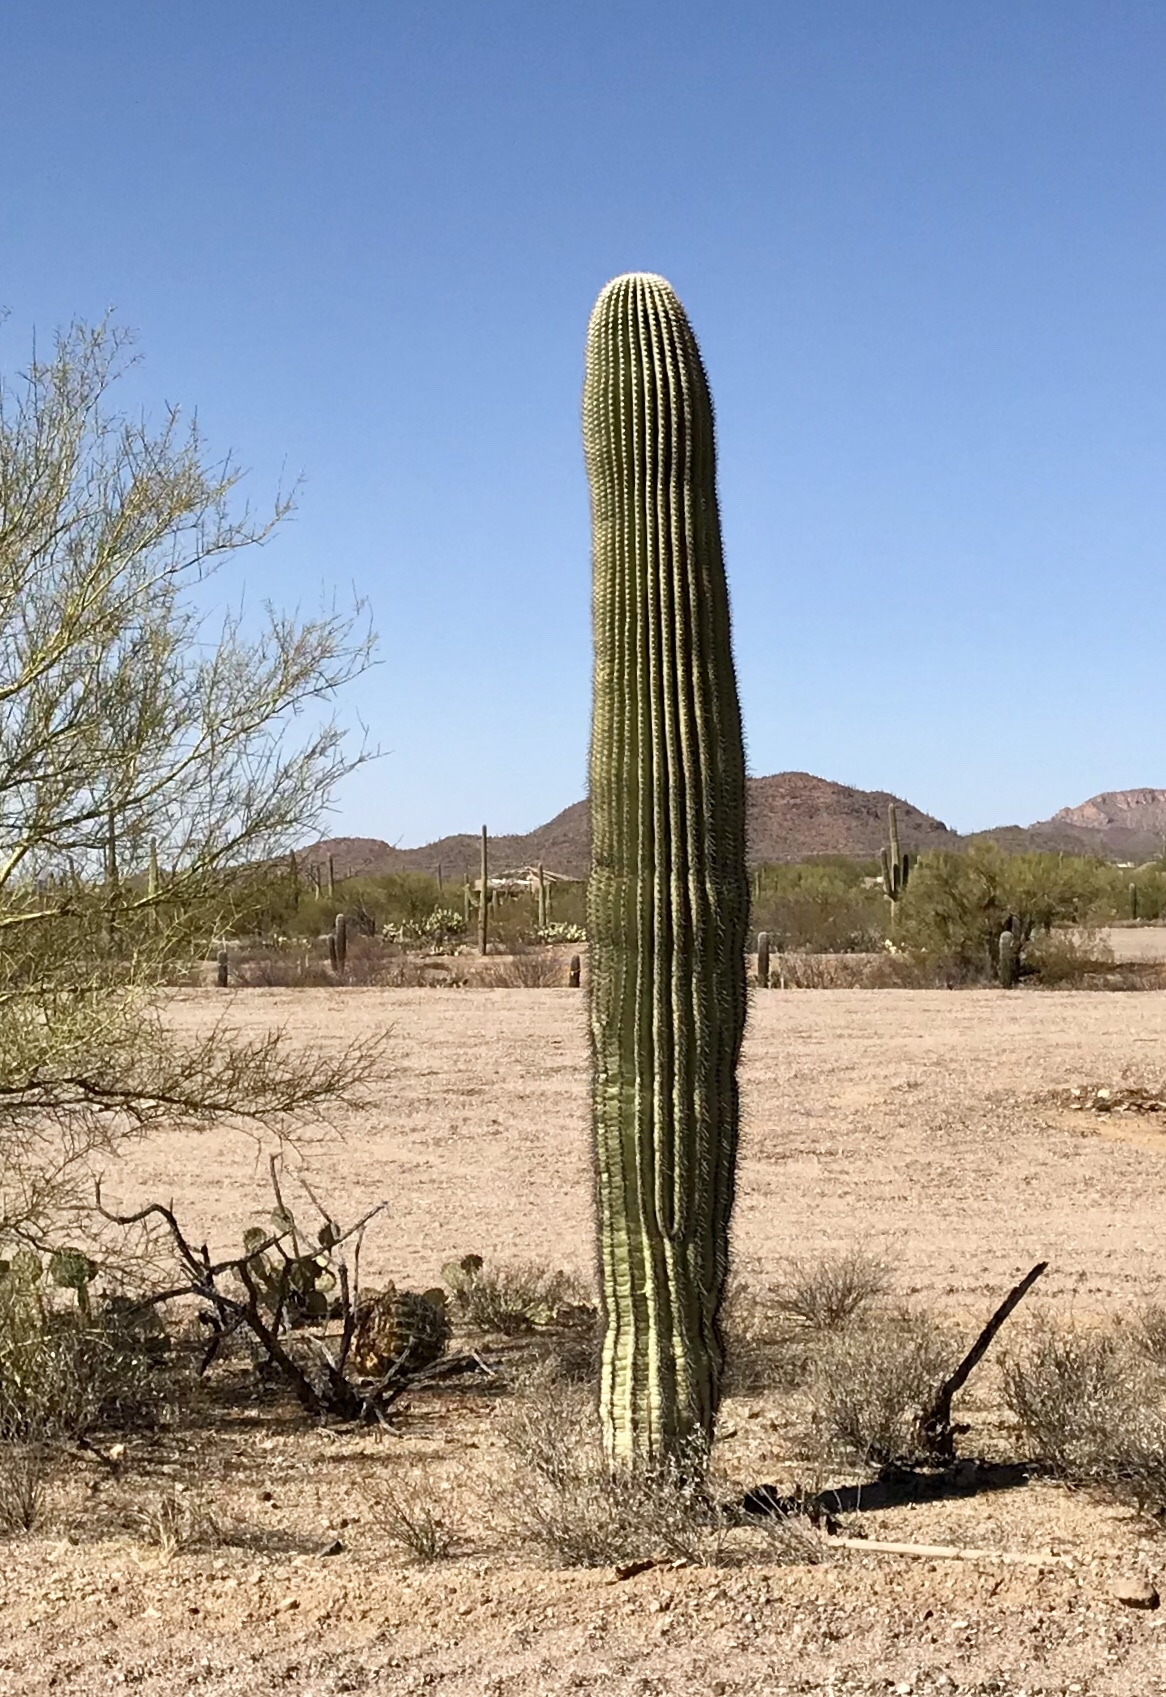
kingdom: Plantae
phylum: Tracheophyta
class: Magnoliopsida
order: Caryophyllales
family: Cactaceae
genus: Carnegiea
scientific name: Carnegiea gigantea
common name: Saguaro
